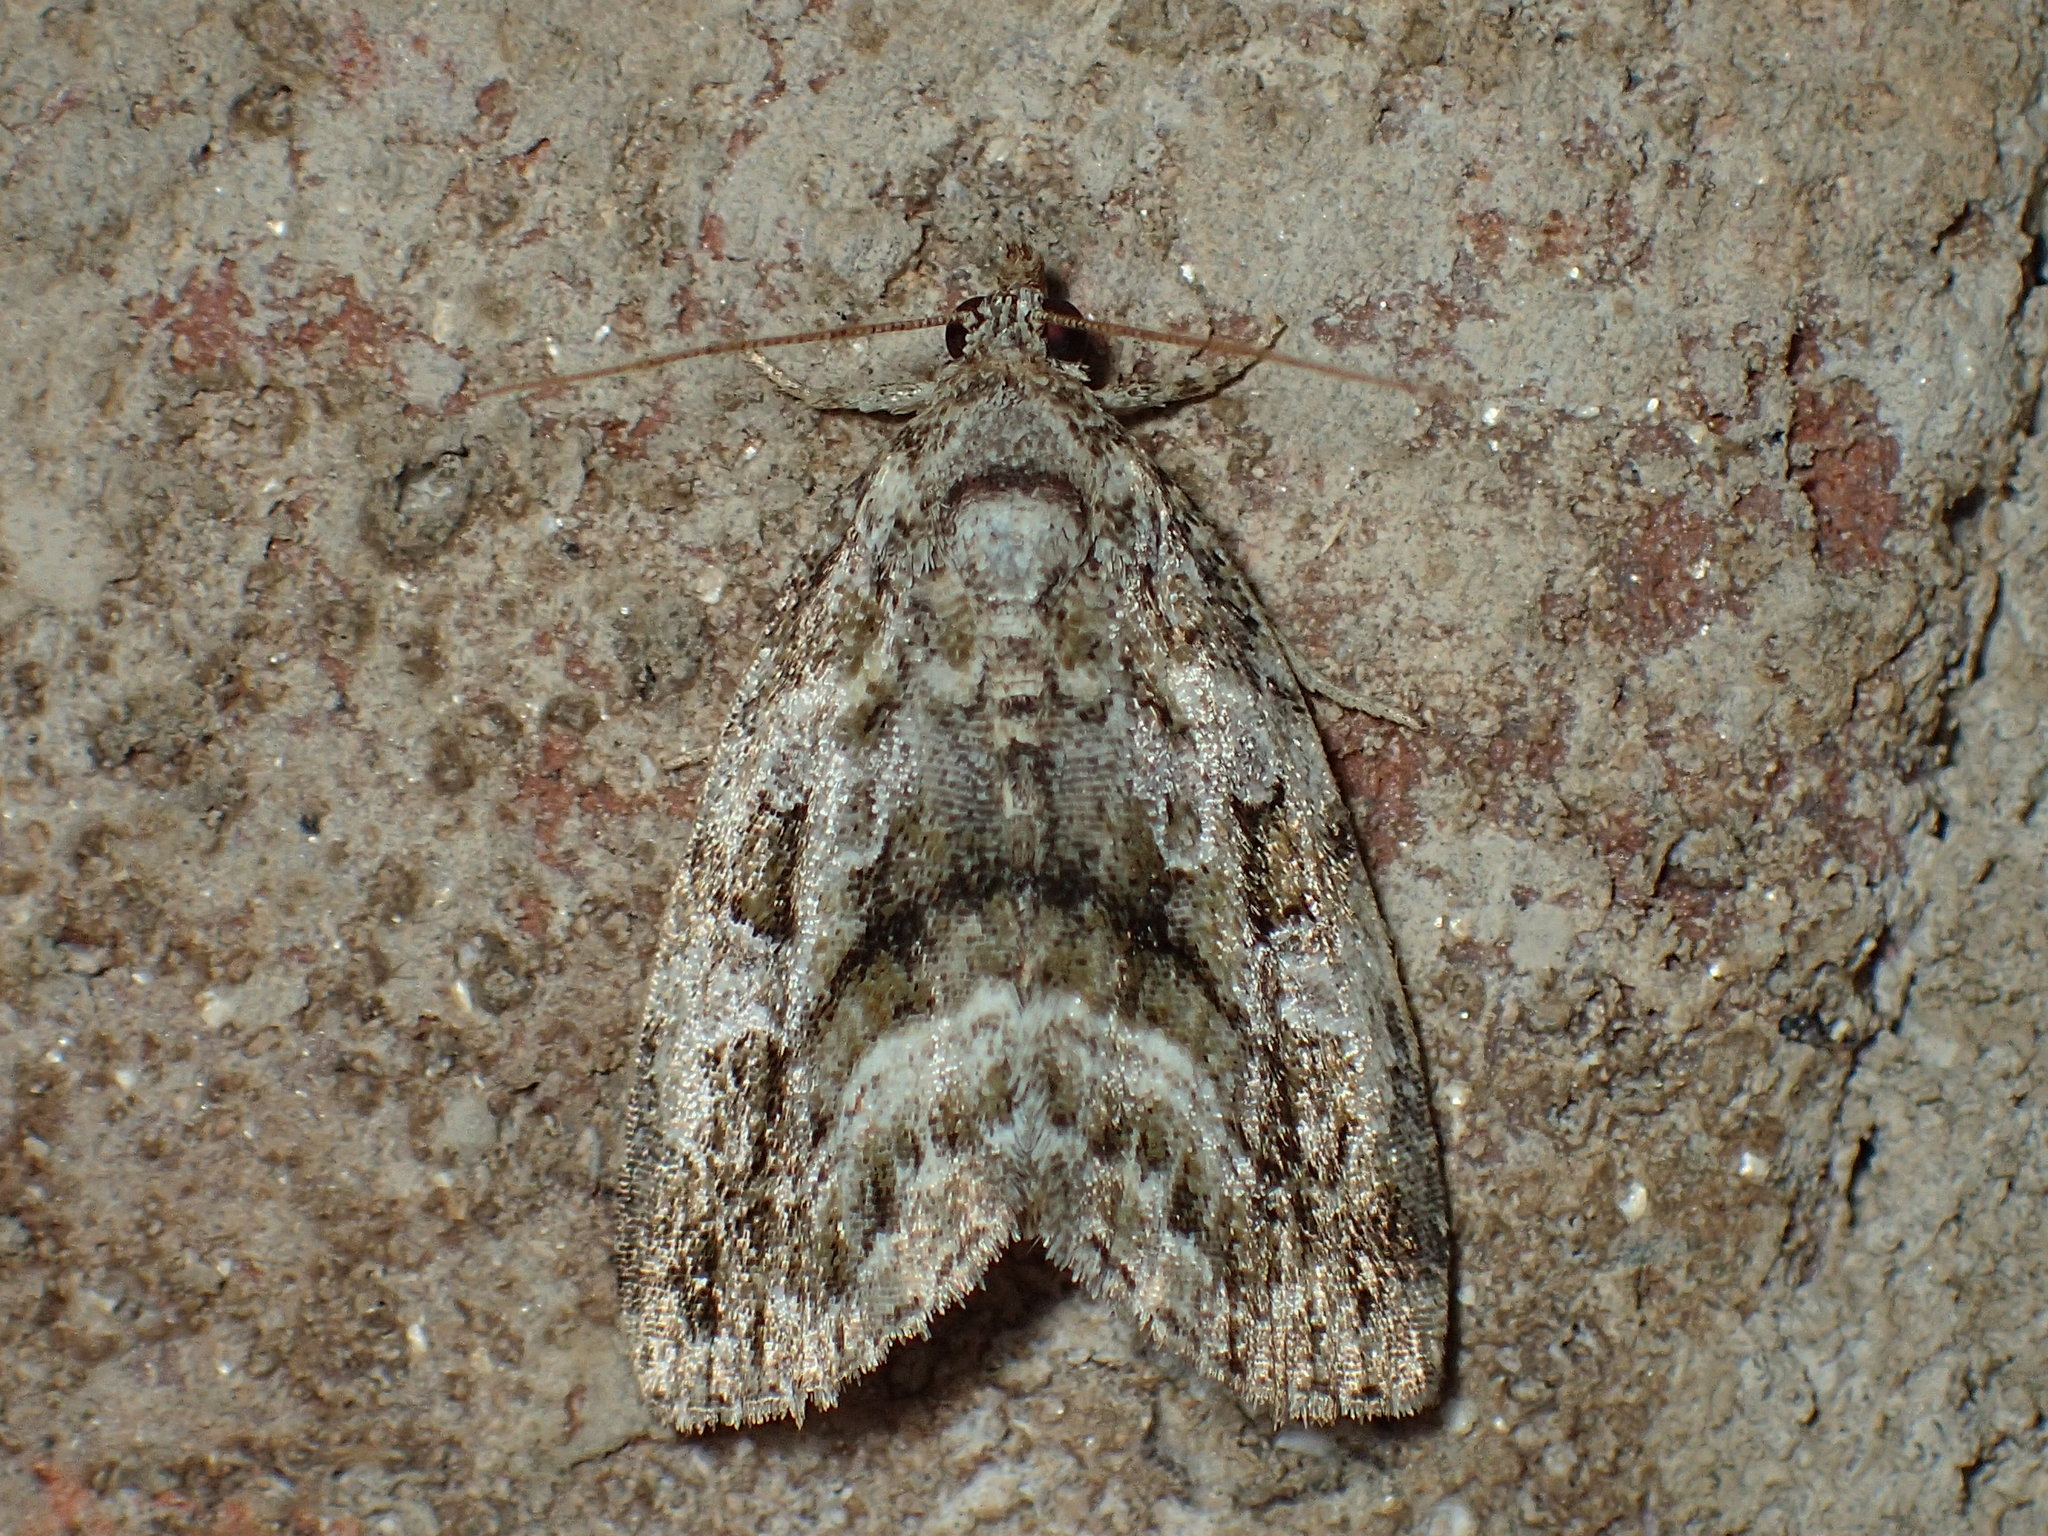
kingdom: Animalia
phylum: Arthropoda
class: Insecta
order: Lepidoptera
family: Noctuidae
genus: Protodeltote
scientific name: Protodeltote muscosula
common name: Large mossy glyph
